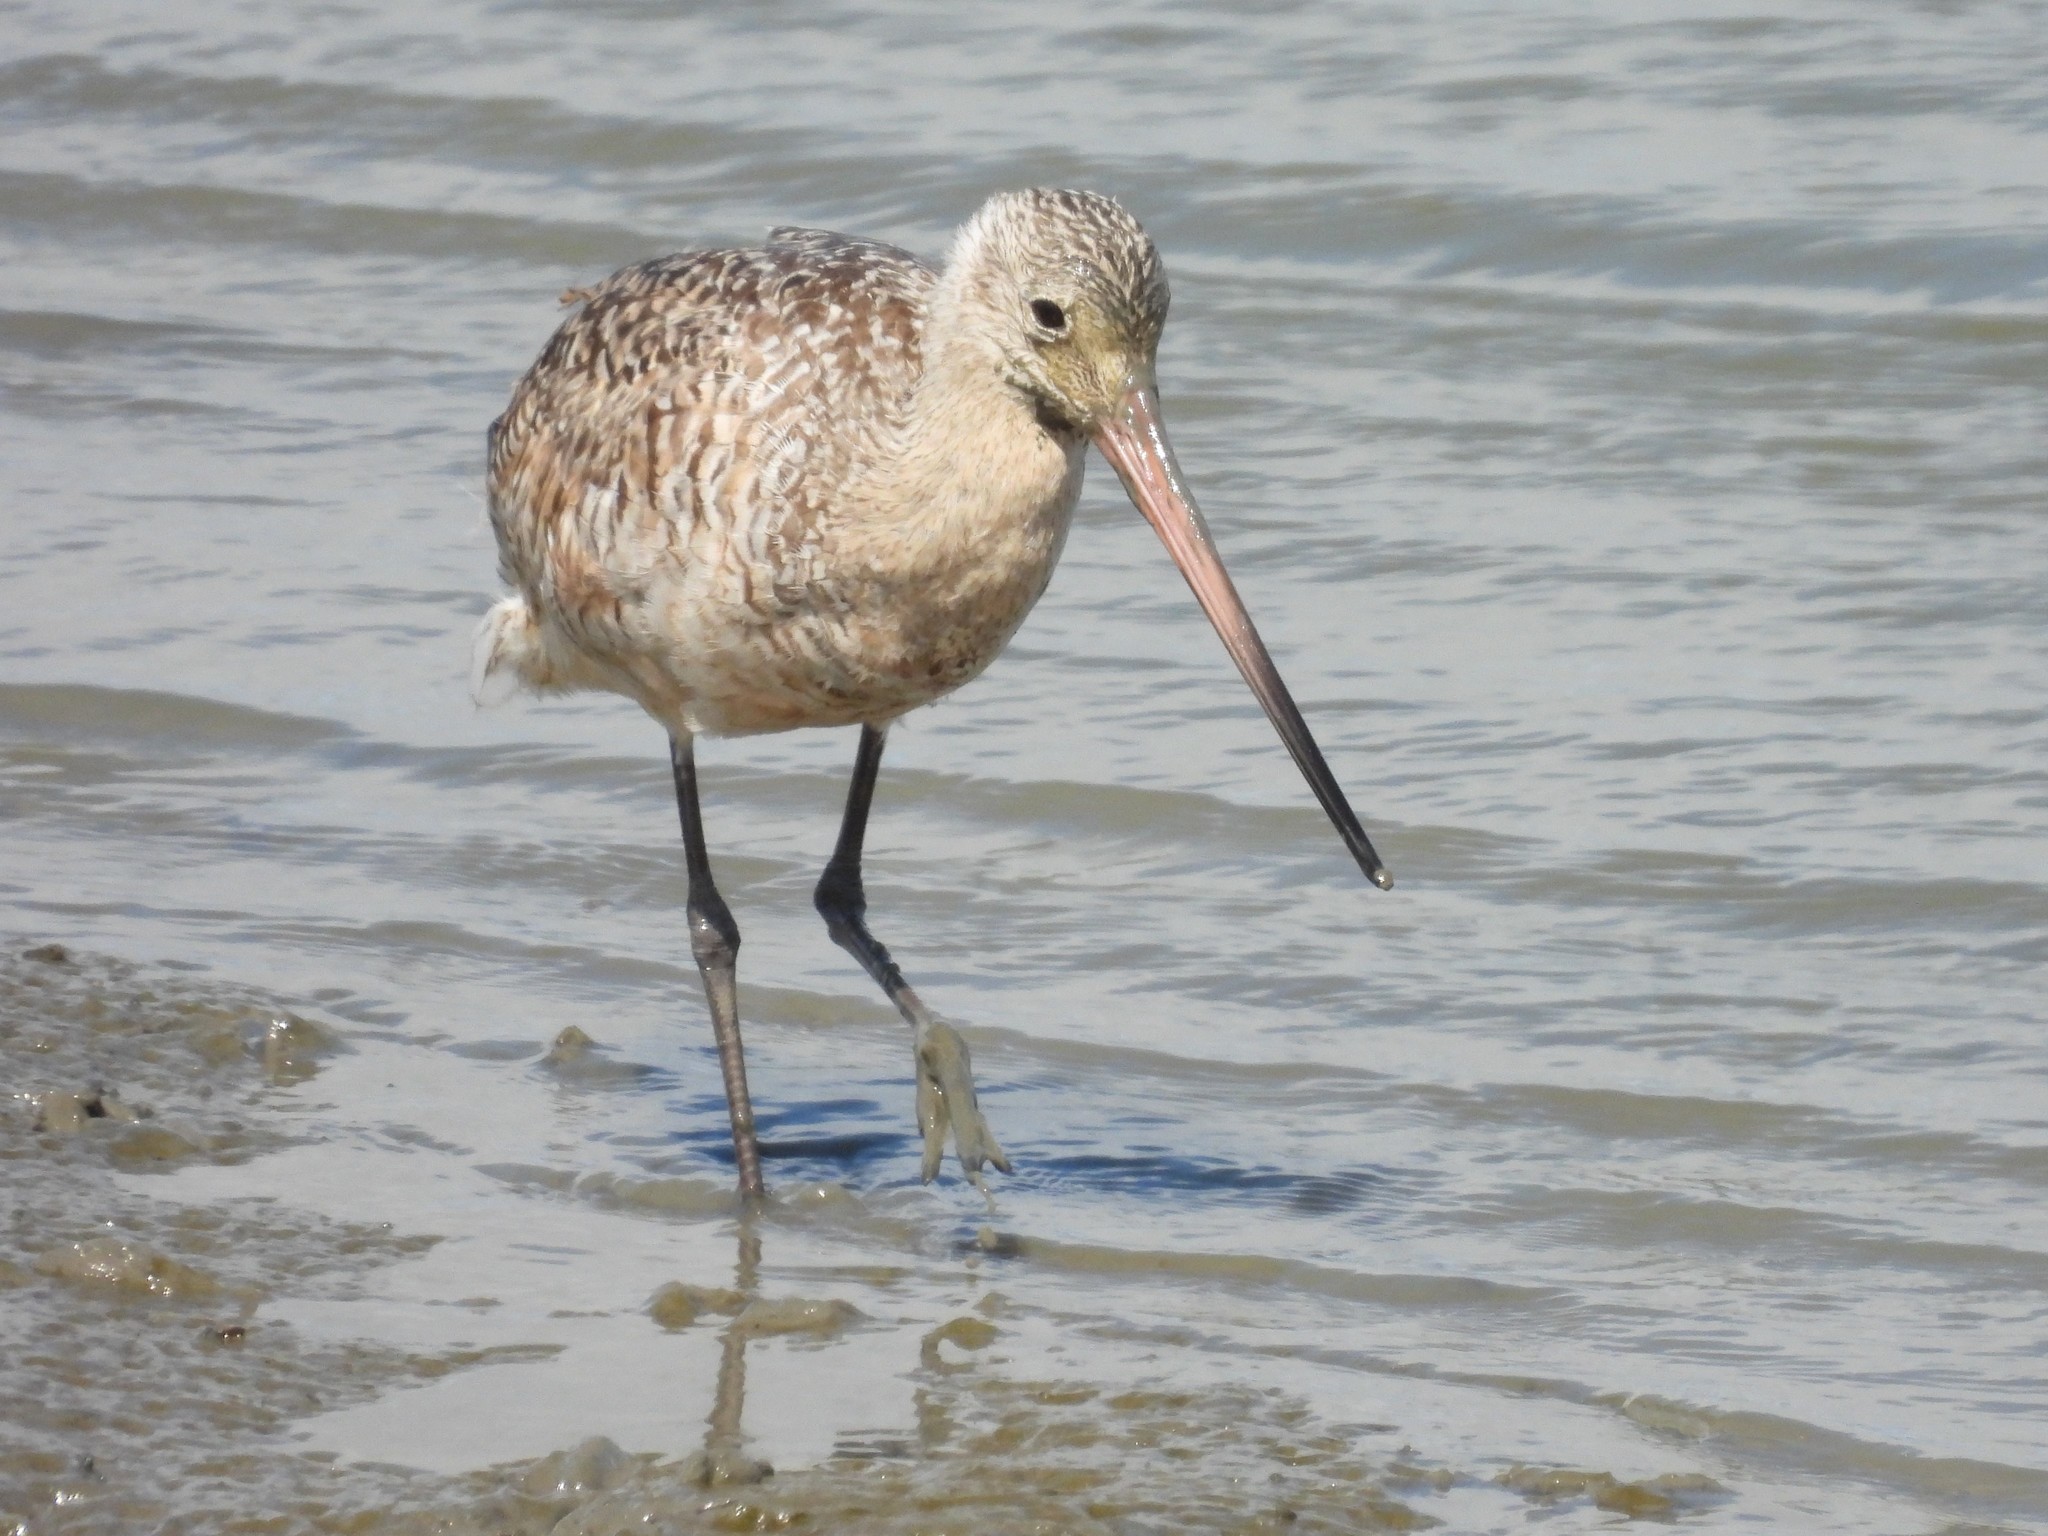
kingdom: Animalia
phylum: Chordata
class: Aves
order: Charadriiformes
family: Scolopacidae
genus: Limosa
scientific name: Limosa fedoa
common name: Marbled godwit
